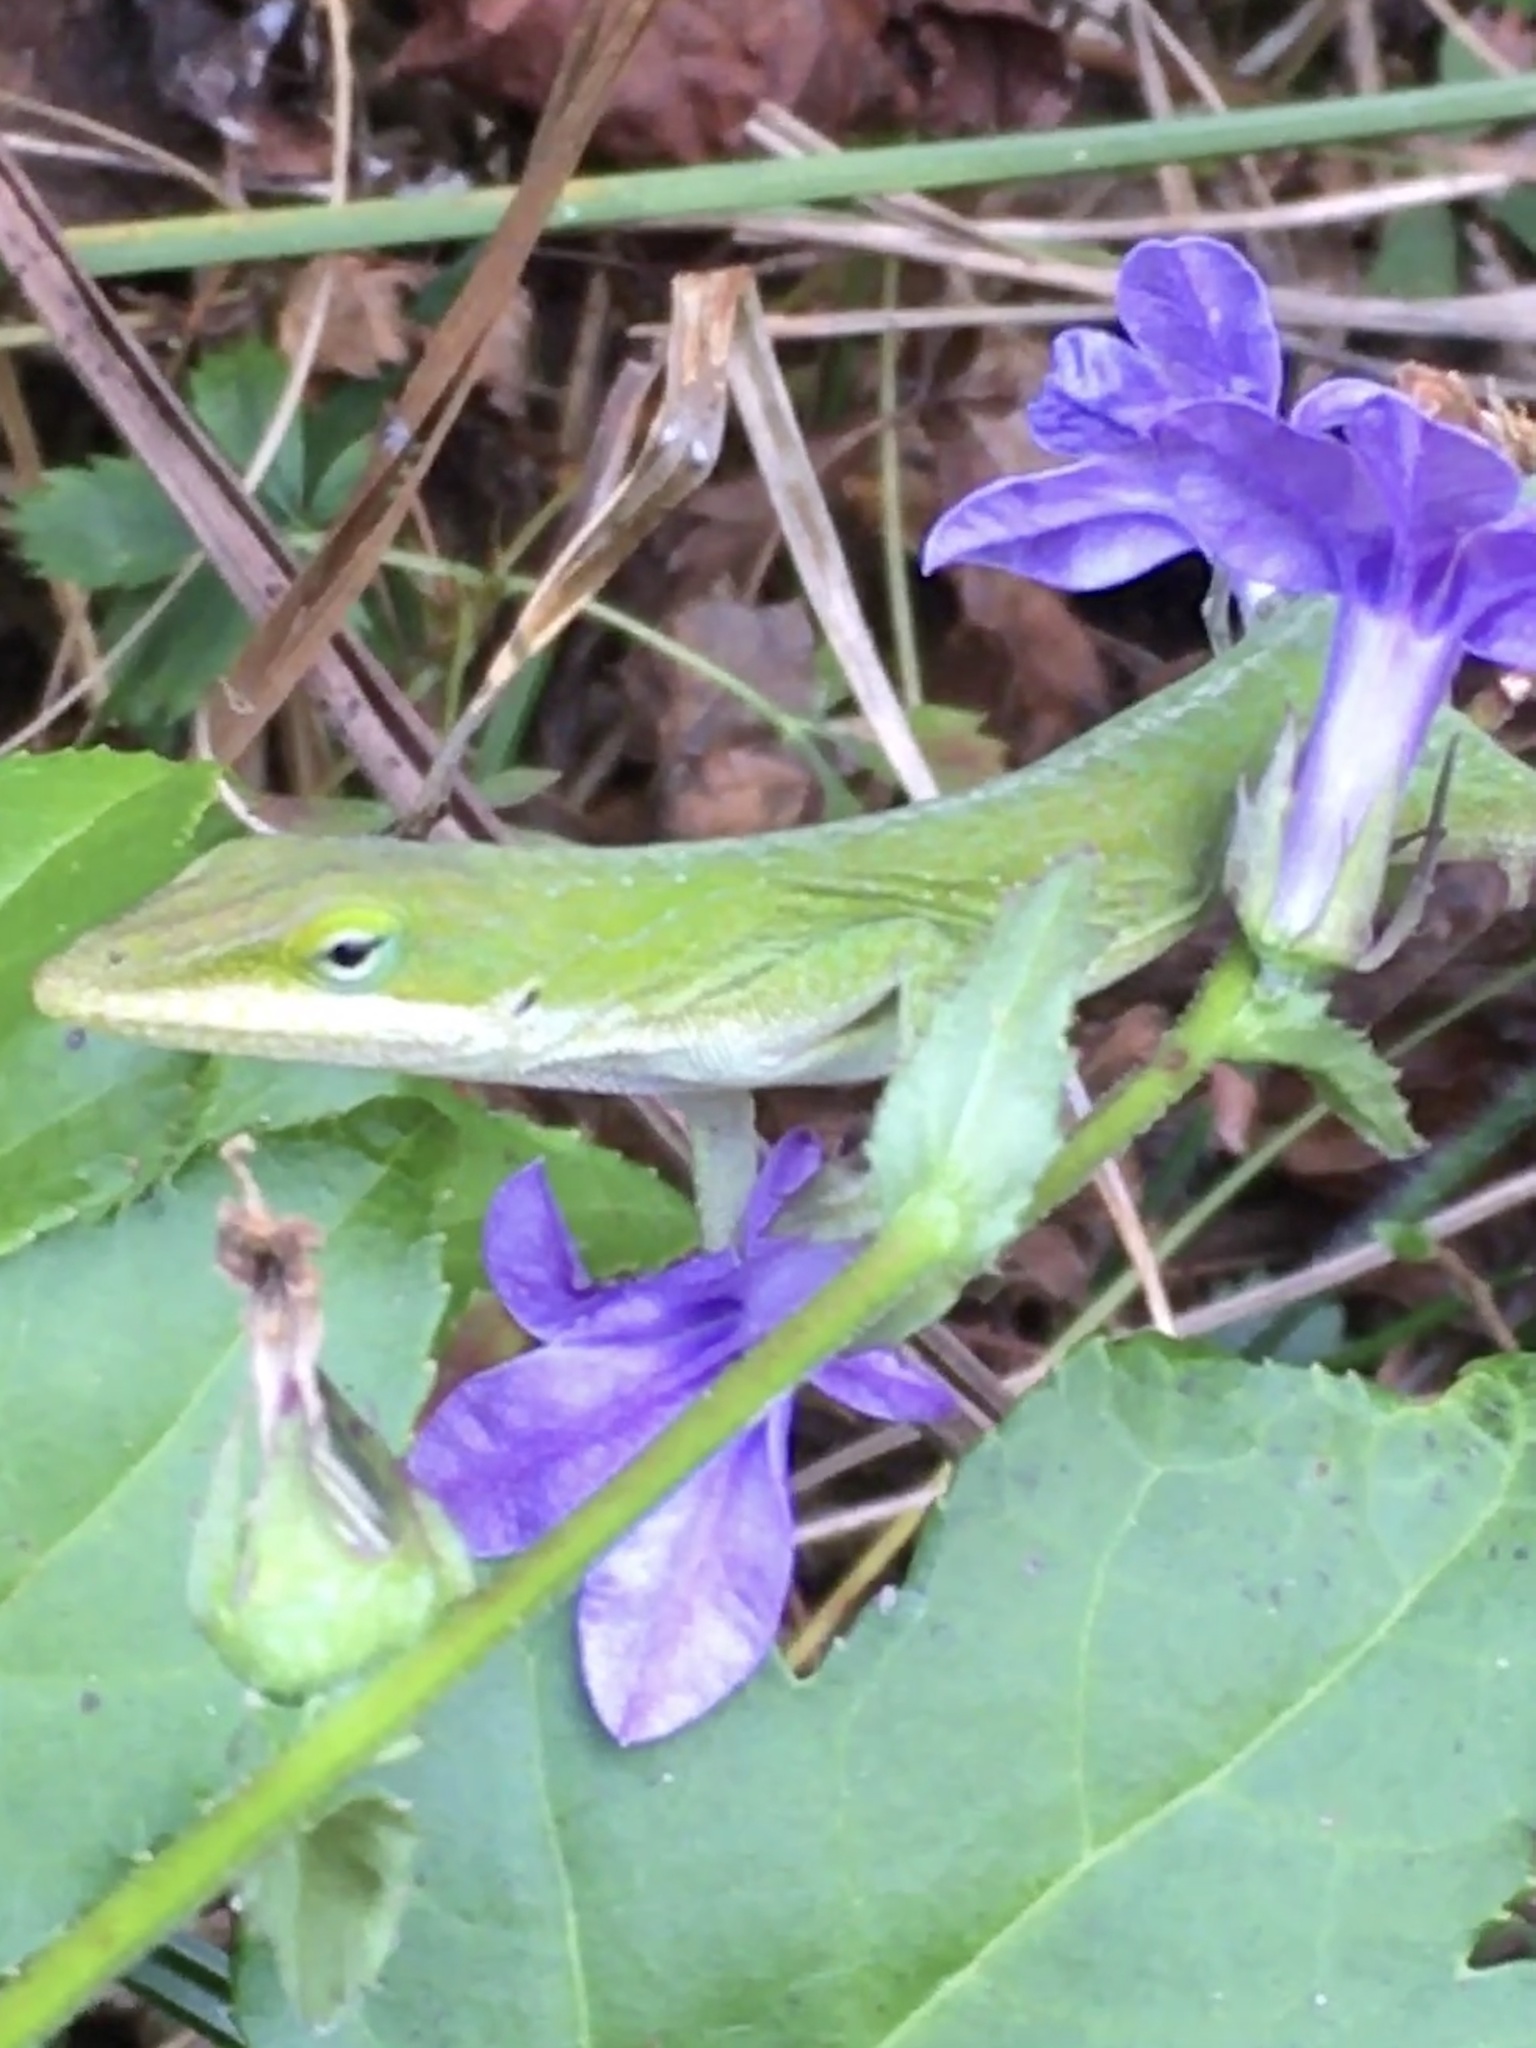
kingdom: Animalia
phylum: Chordata
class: Squamata
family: Dactyloidae
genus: Anolis
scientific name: Anolis carolinensis
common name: Green anole
